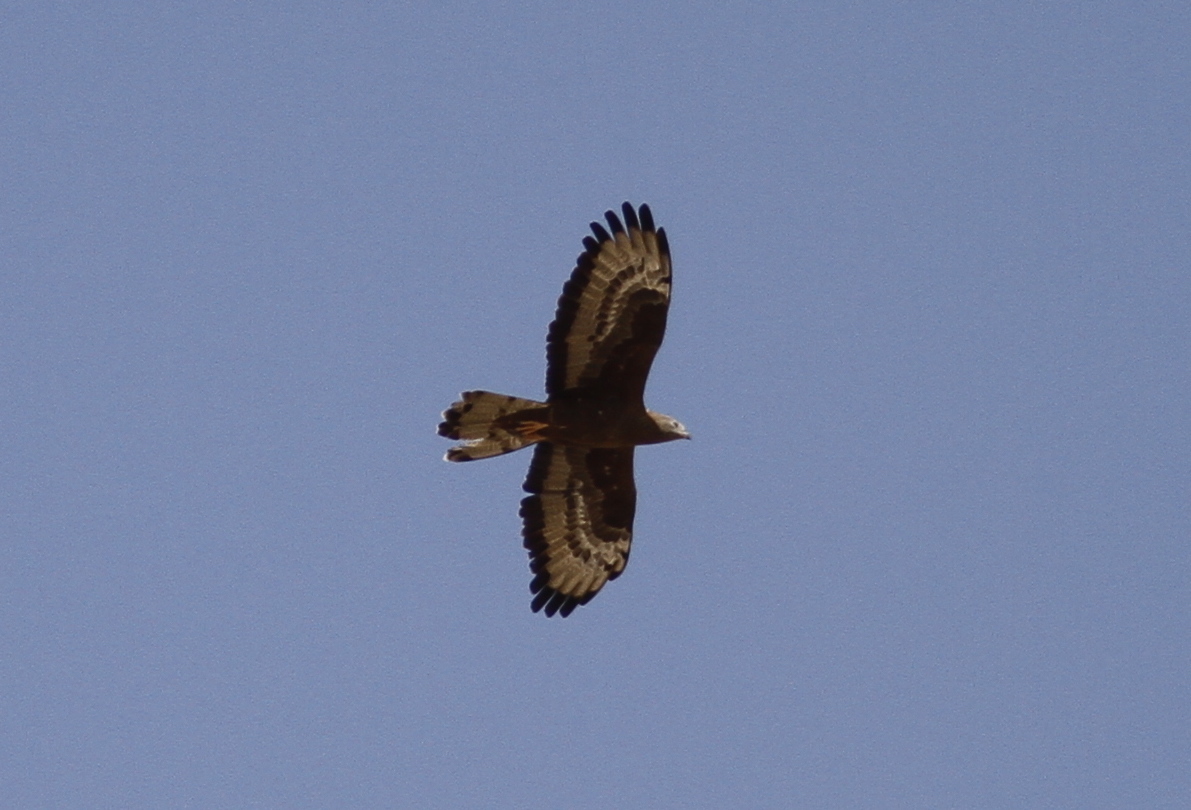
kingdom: Animalia
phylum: Chordata
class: Aves
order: Accipitriformes
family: Accipitridae
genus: Pernis
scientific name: Pernis apivorus
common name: European honey buzzard
